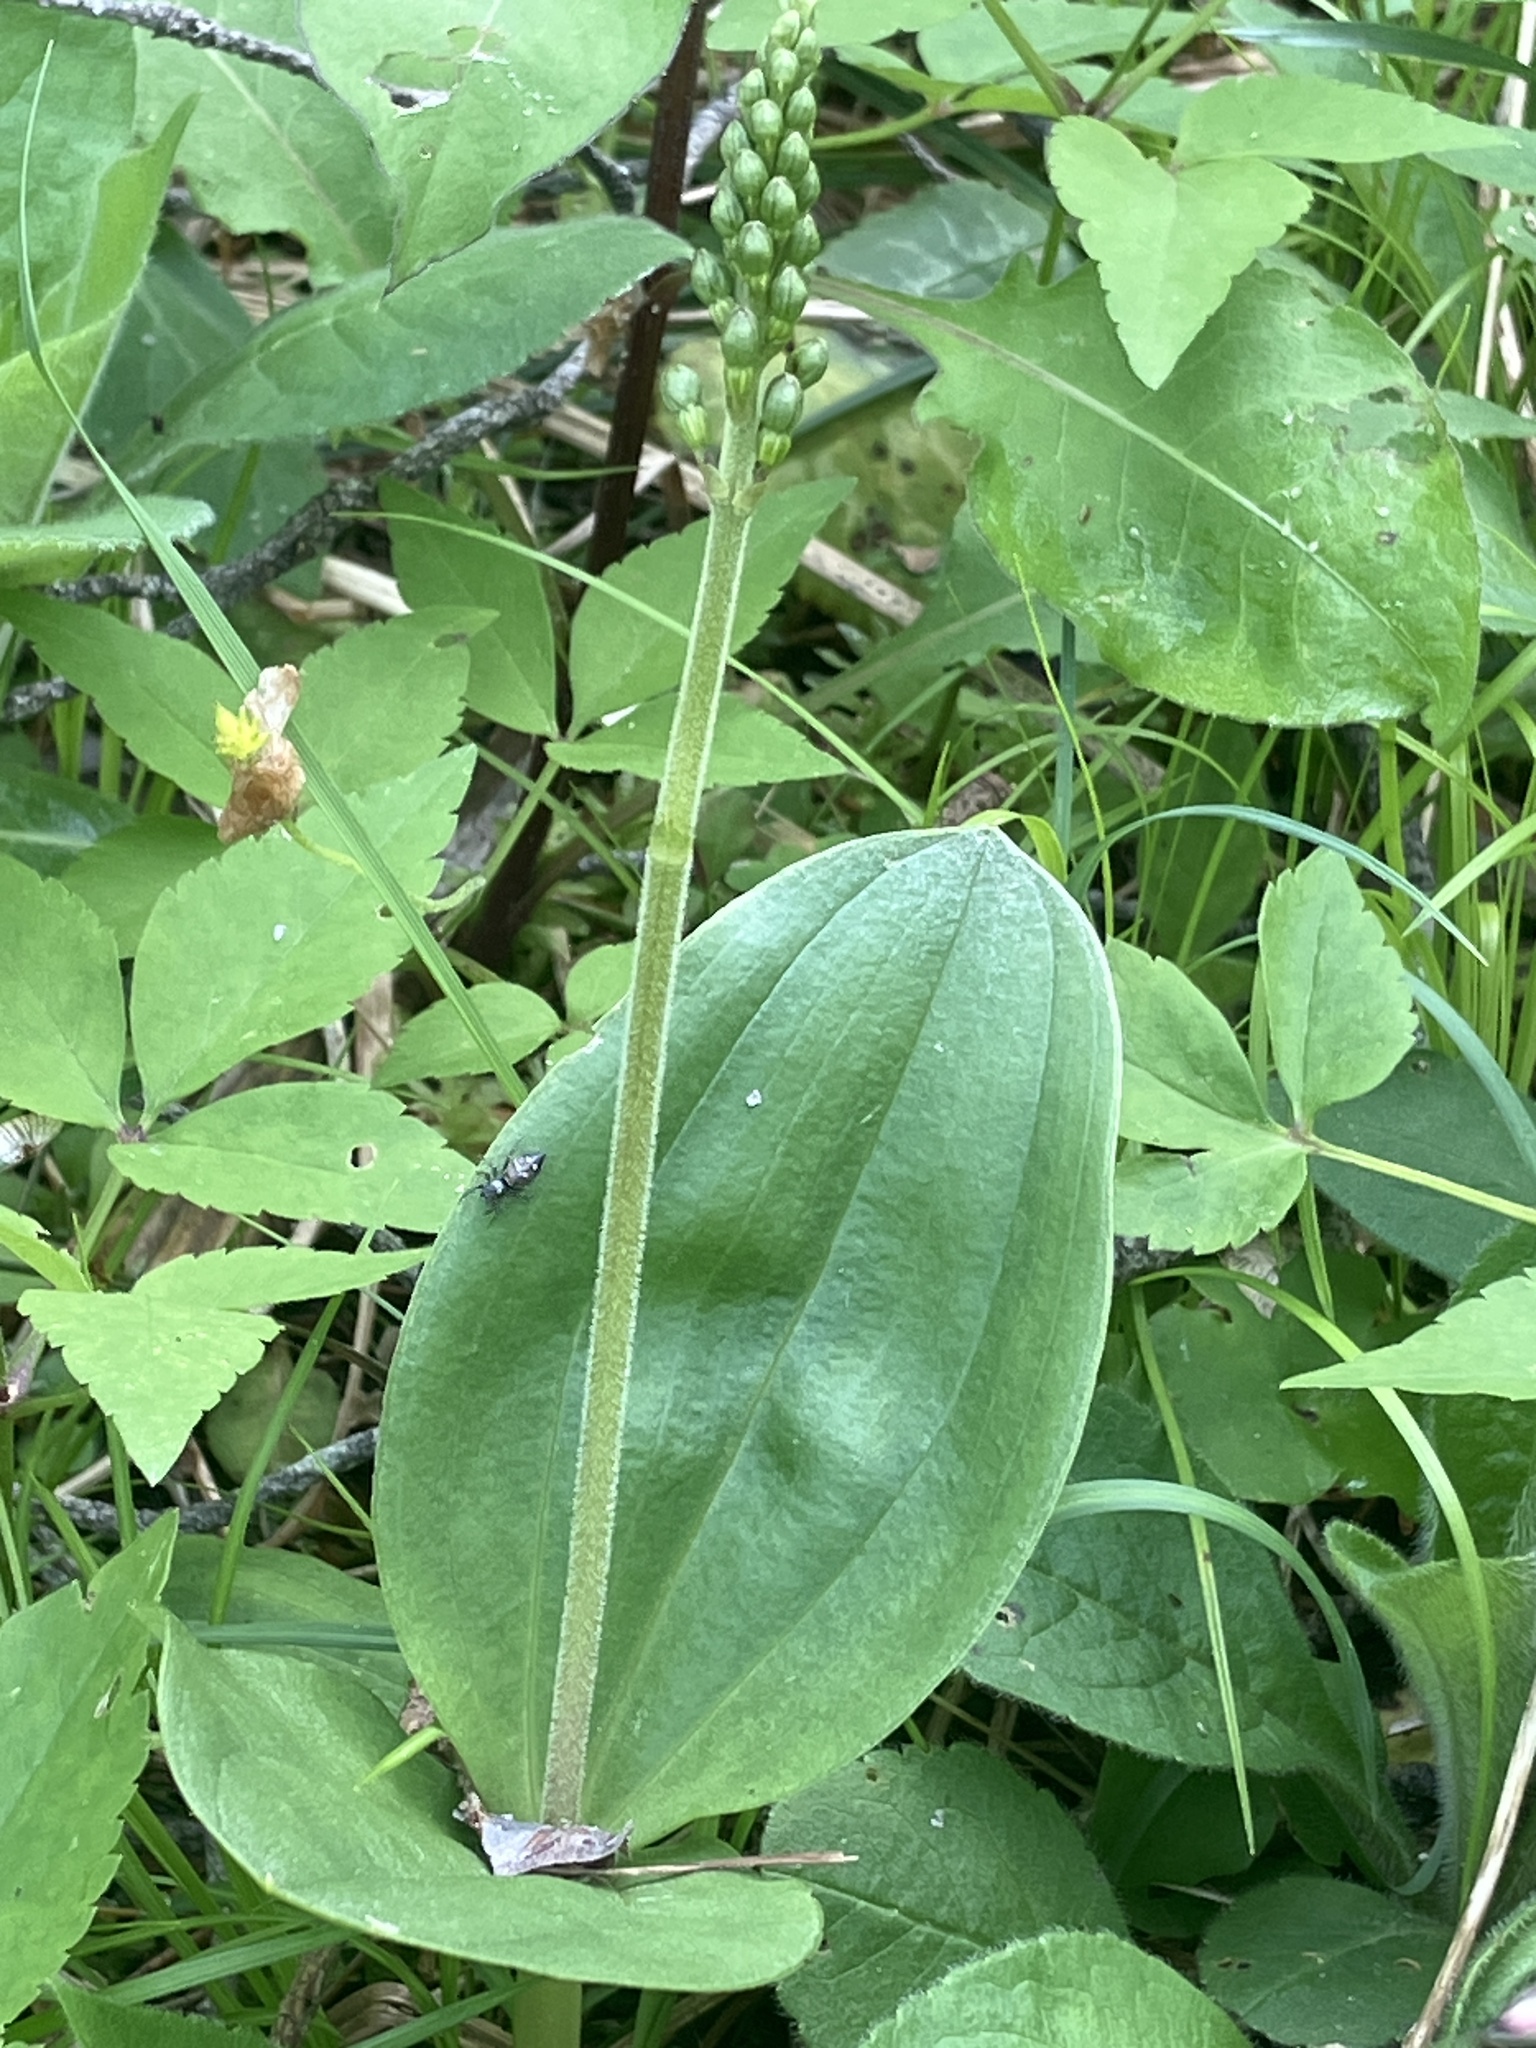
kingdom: Plantae
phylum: Tracheophyta
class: Liliopsida
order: Asparagales
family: Orchidaceae
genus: Neottia
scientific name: Neottia ovata
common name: Common twayblade
